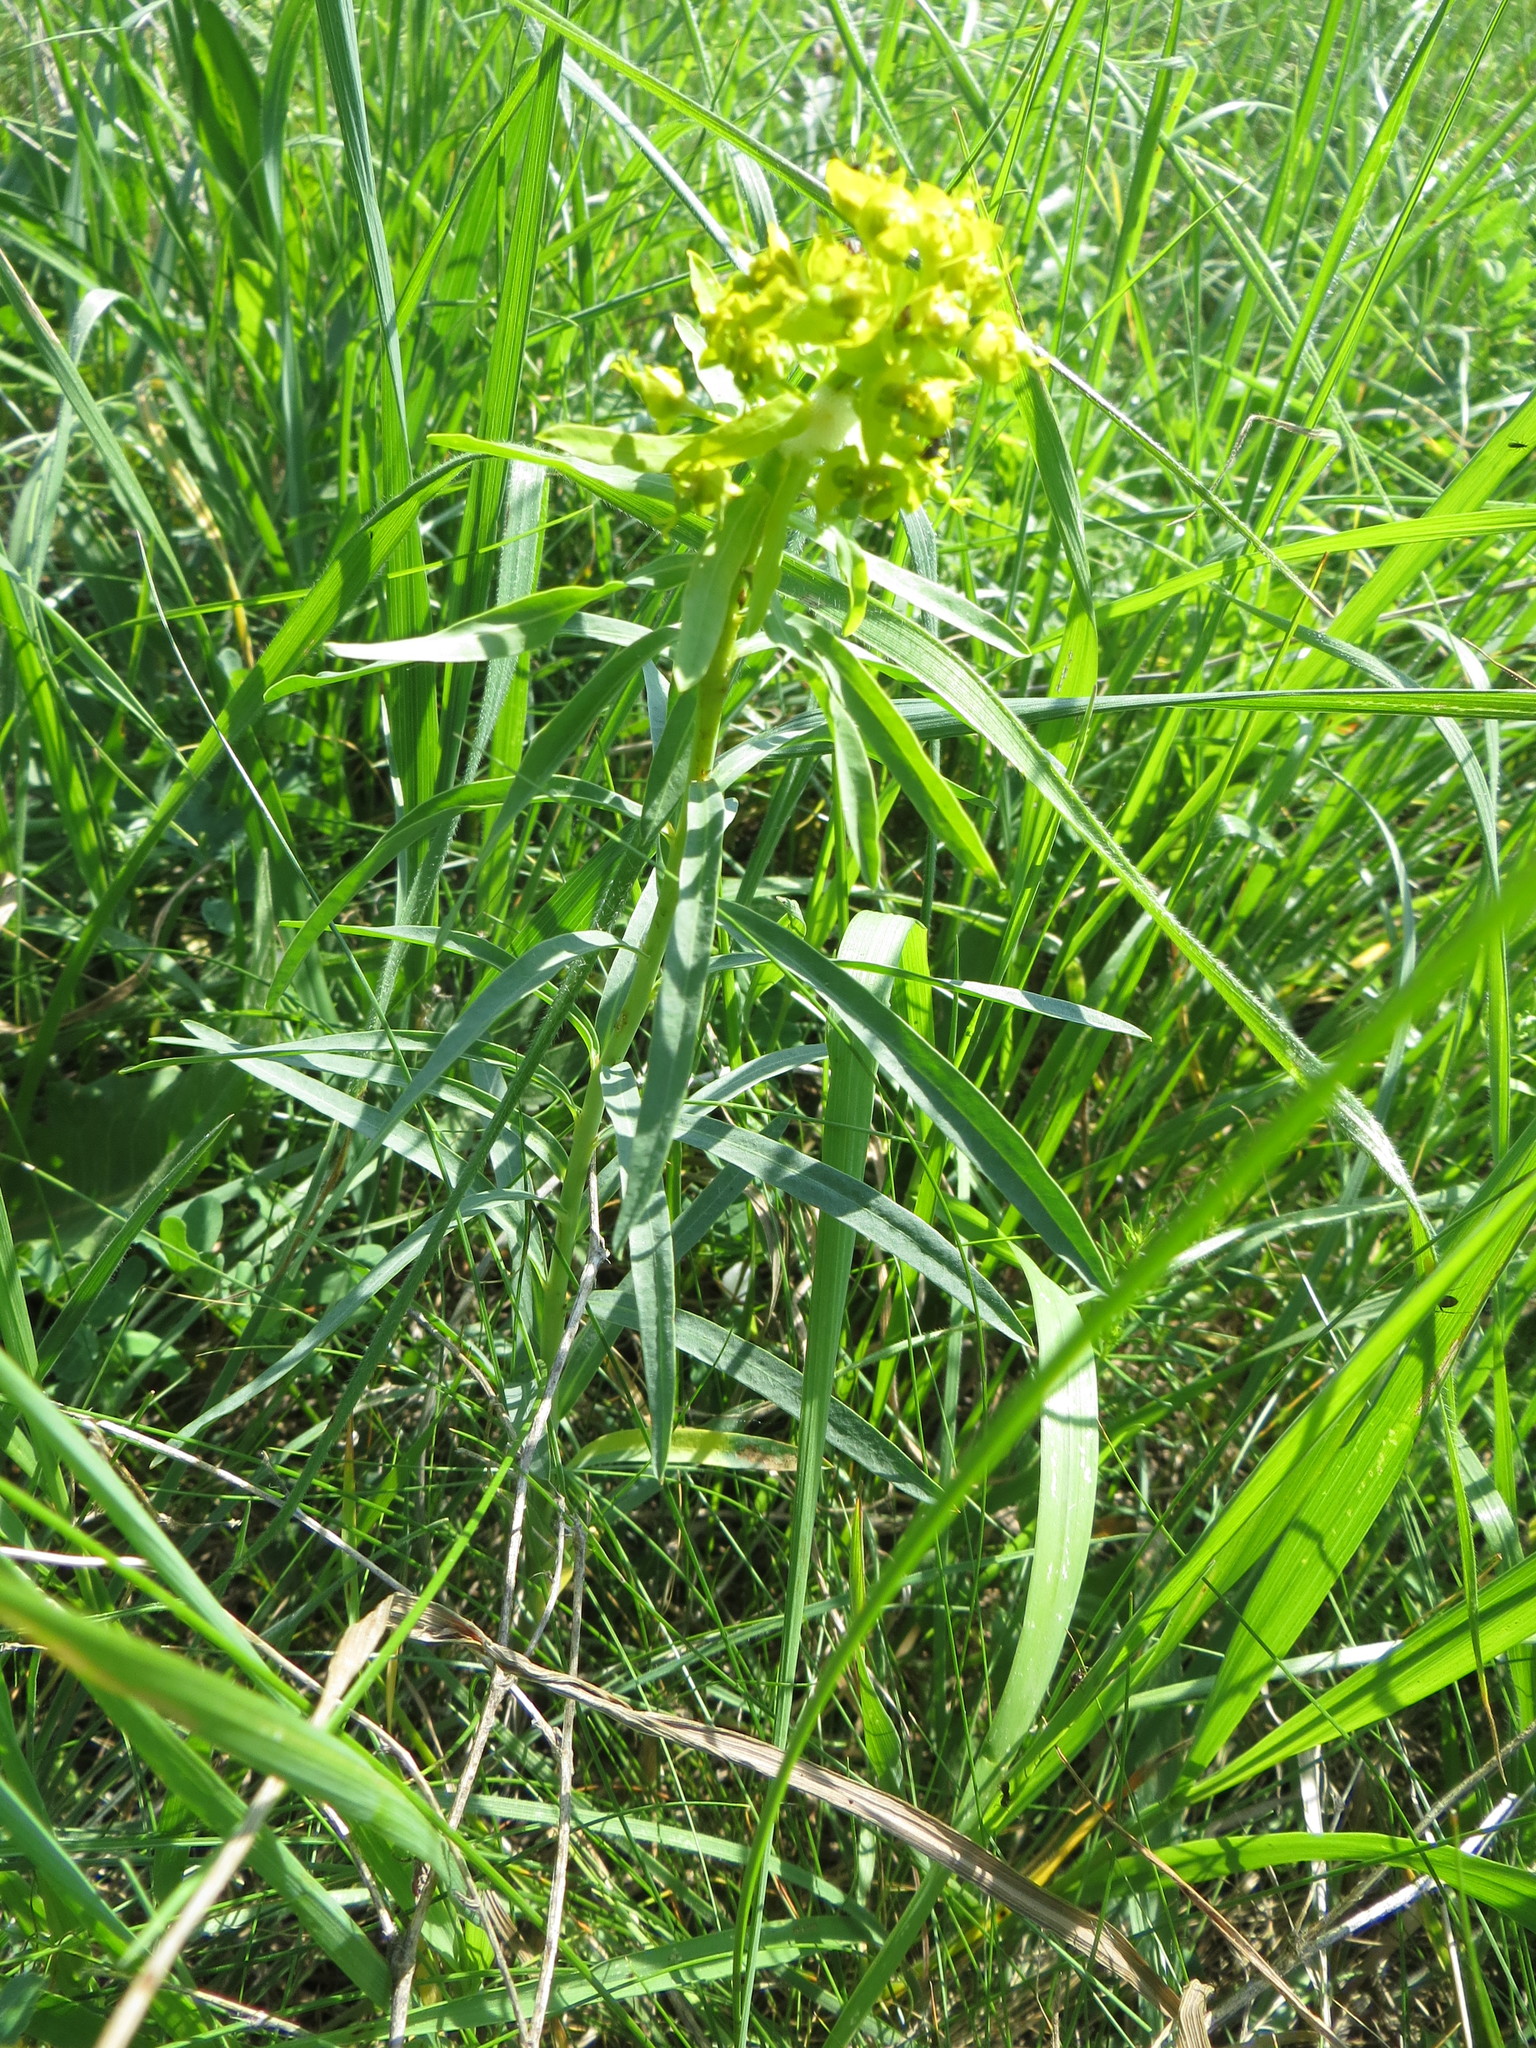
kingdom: Plantae
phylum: Tracheophyta
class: Magnoliopsida
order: Malpighiales
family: Euphorbiaceae
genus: Euphorbia
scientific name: Euphorbia virgata
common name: Leafy spurge
